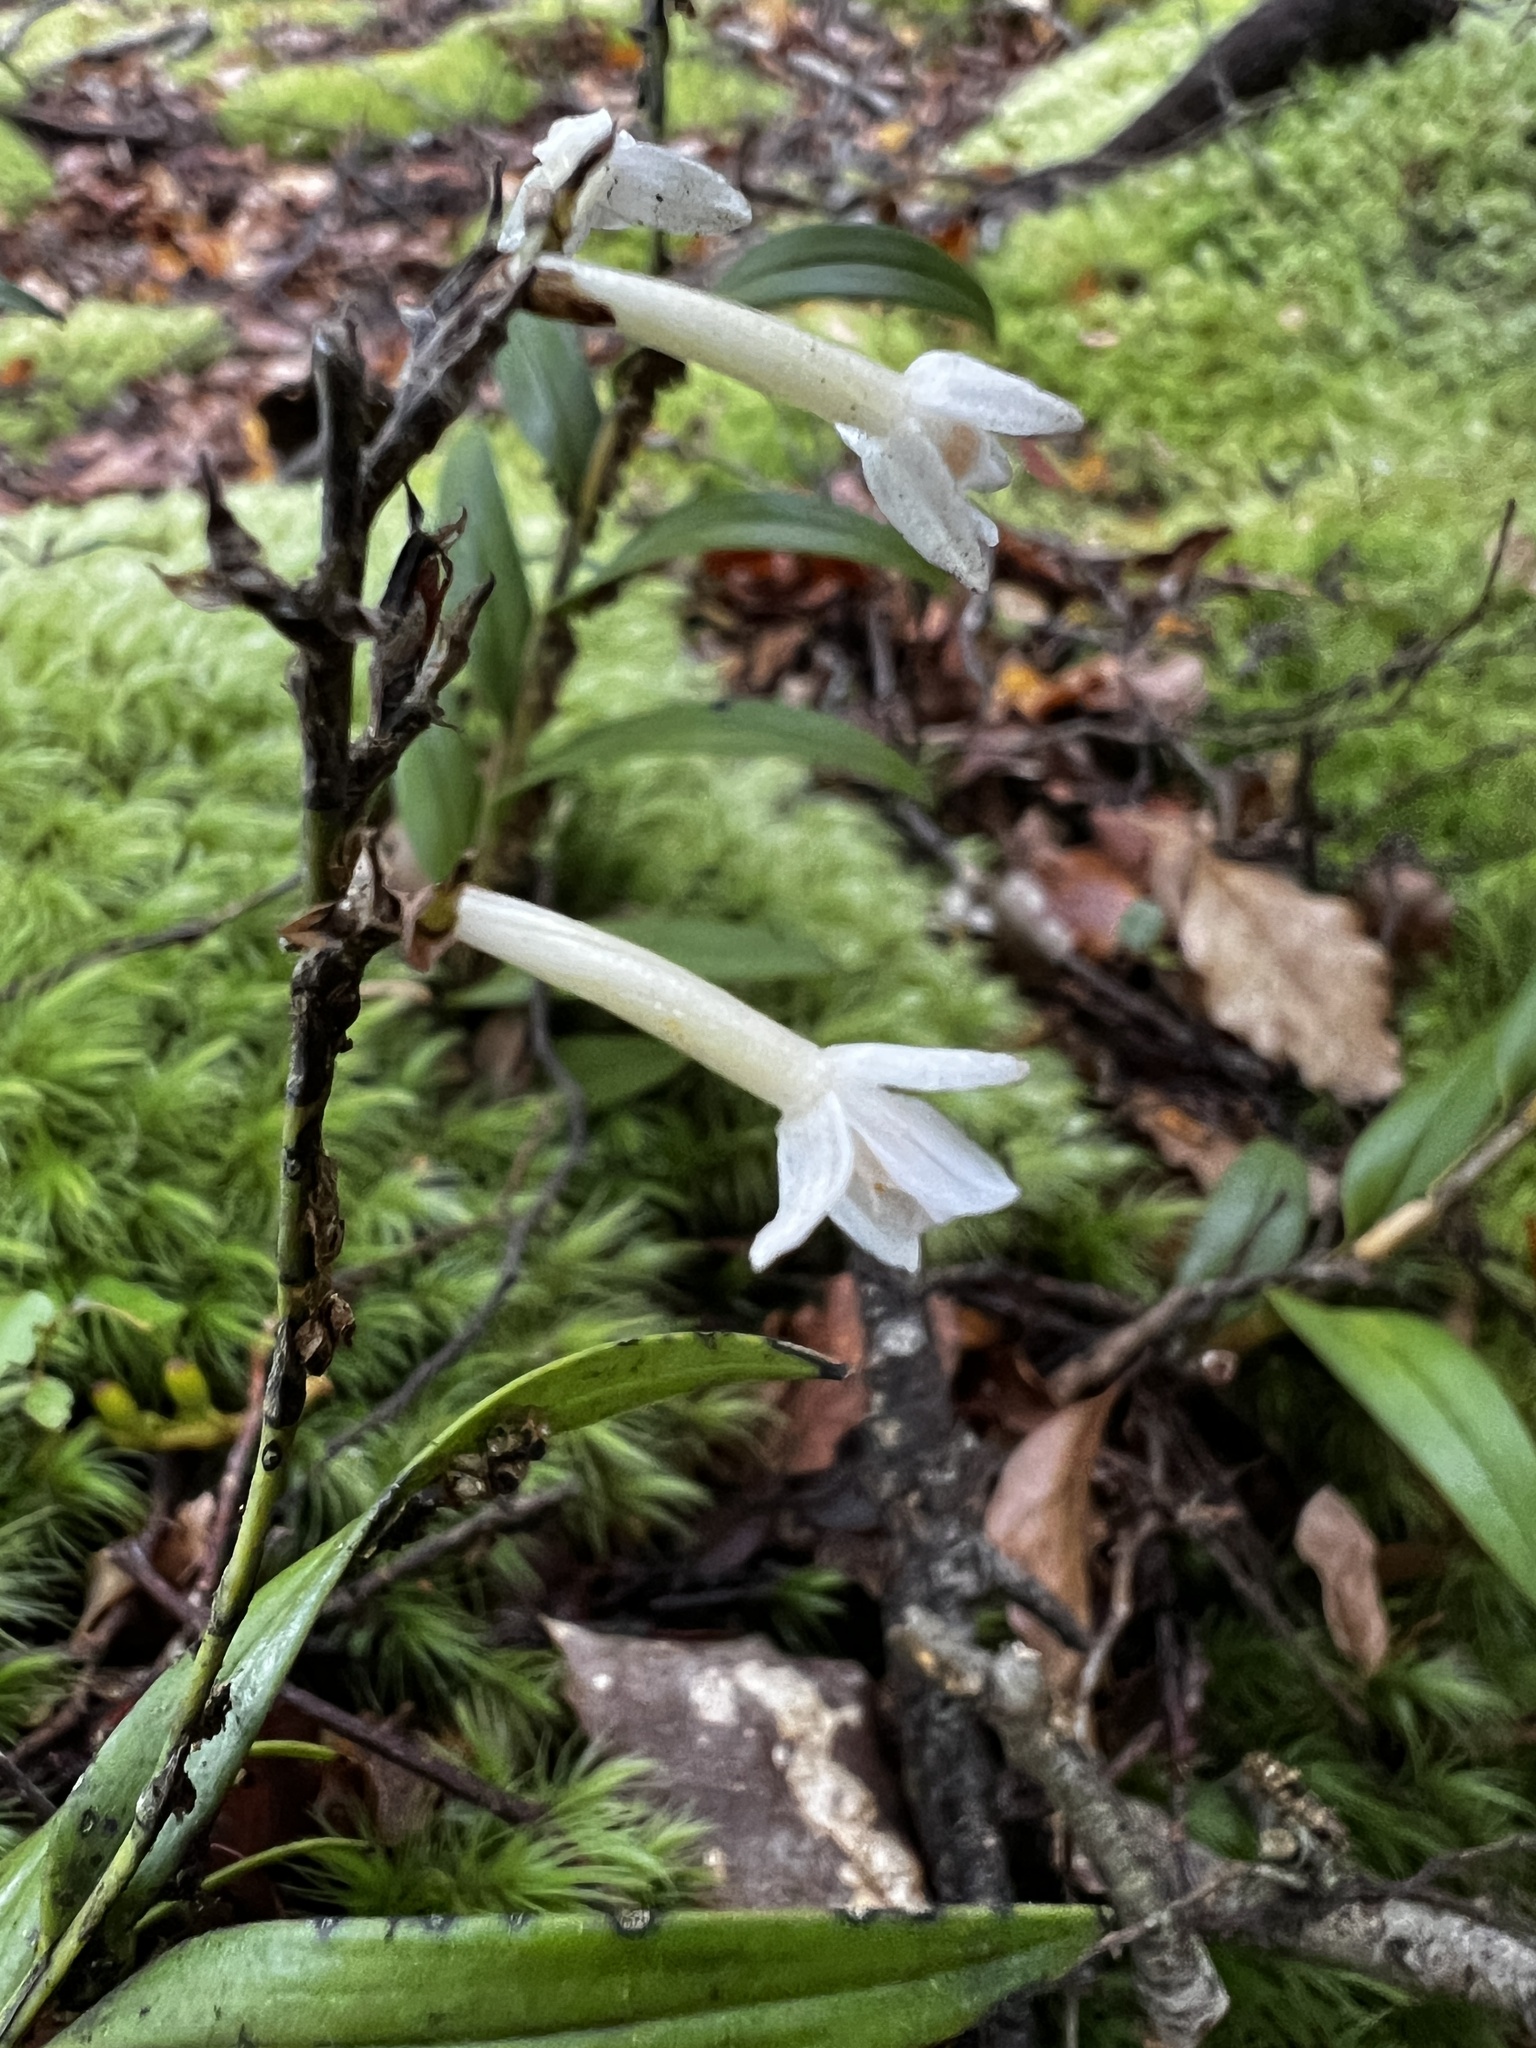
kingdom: Plantae
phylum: Tracheophyta
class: Liliopsida
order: Asparagales
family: Orchidaceae
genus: Earina
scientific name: Earina autumnalis
